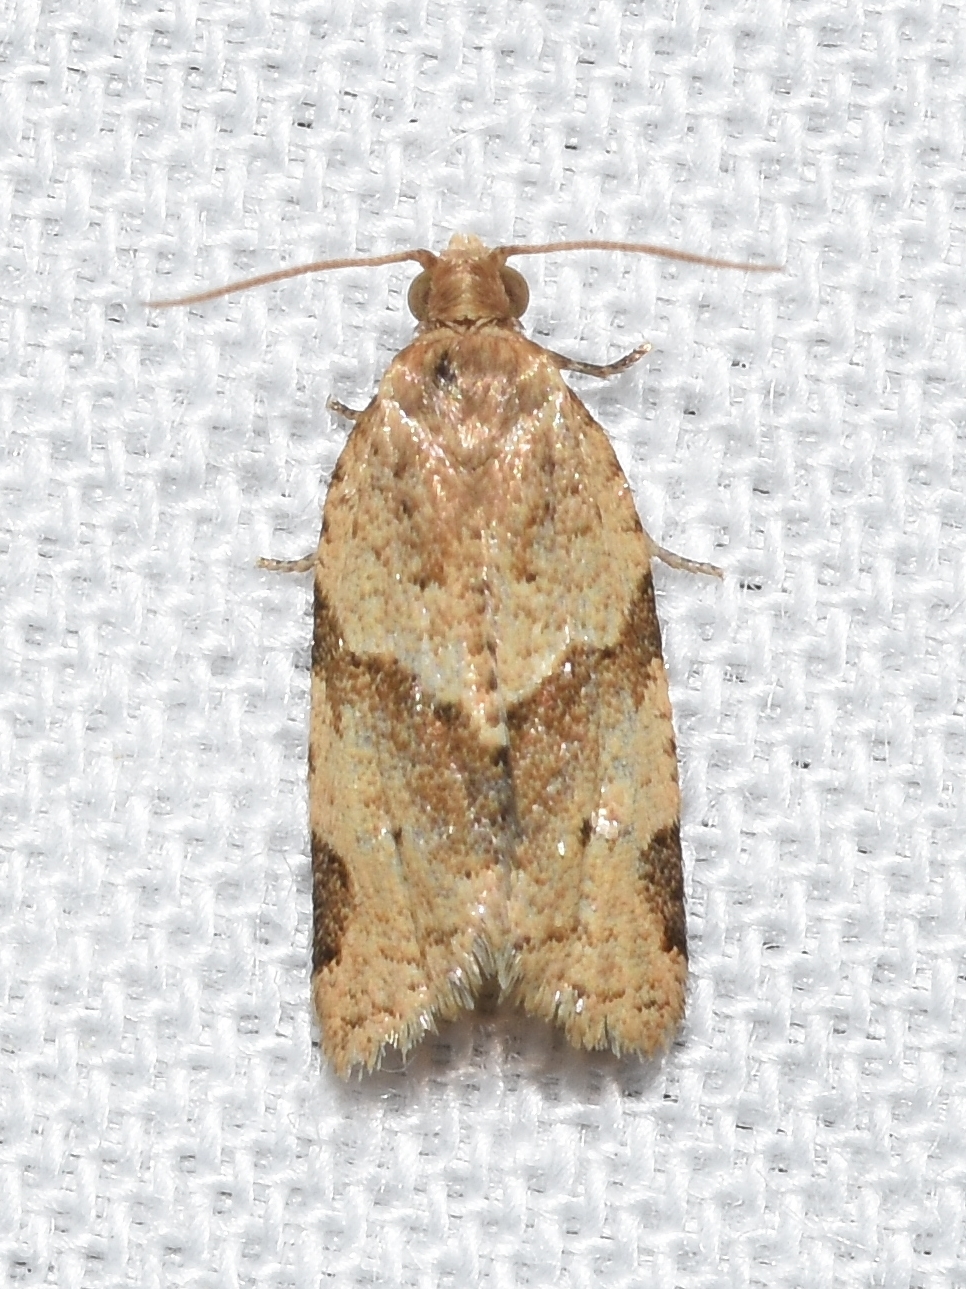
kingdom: Animalia
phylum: Arthropoda
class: Insecta
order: Lepidoptera
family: Tortricidae
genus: Clepsis
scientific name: Clepsis peritana
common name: Garden tortrix
